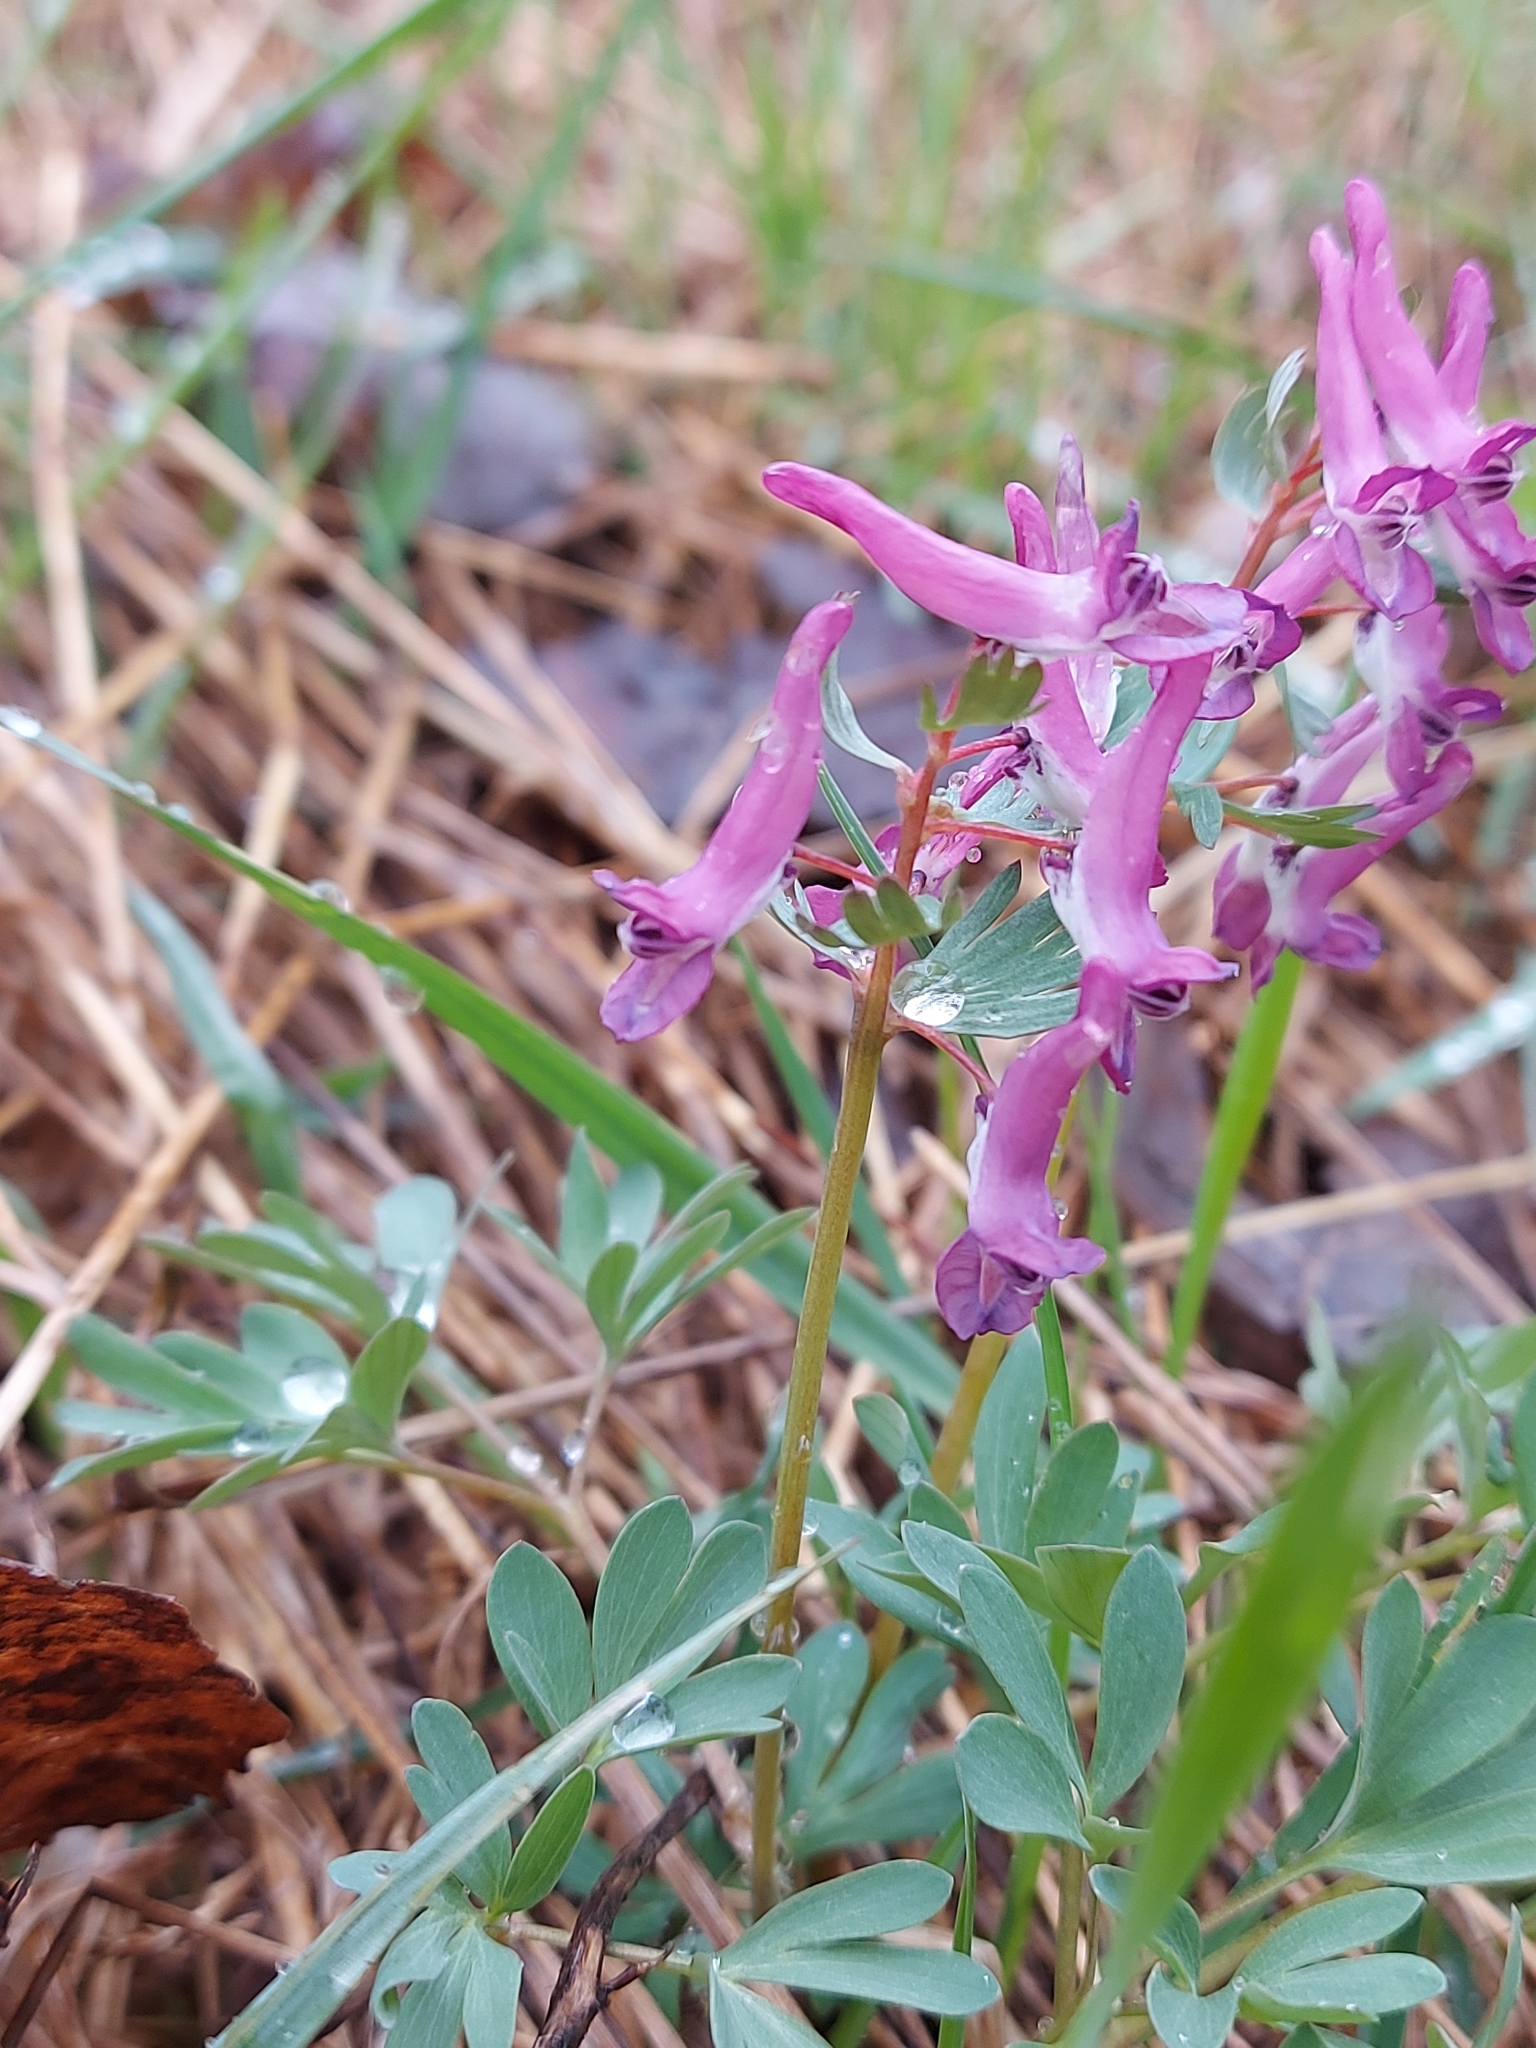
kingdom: Plantae
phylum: Tracheophyta
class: Magnoliopsida
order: Ranunculales
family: Papaveraceae
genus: Corydalis
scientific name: Corydalis solida
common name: Bird-in-a-bush
